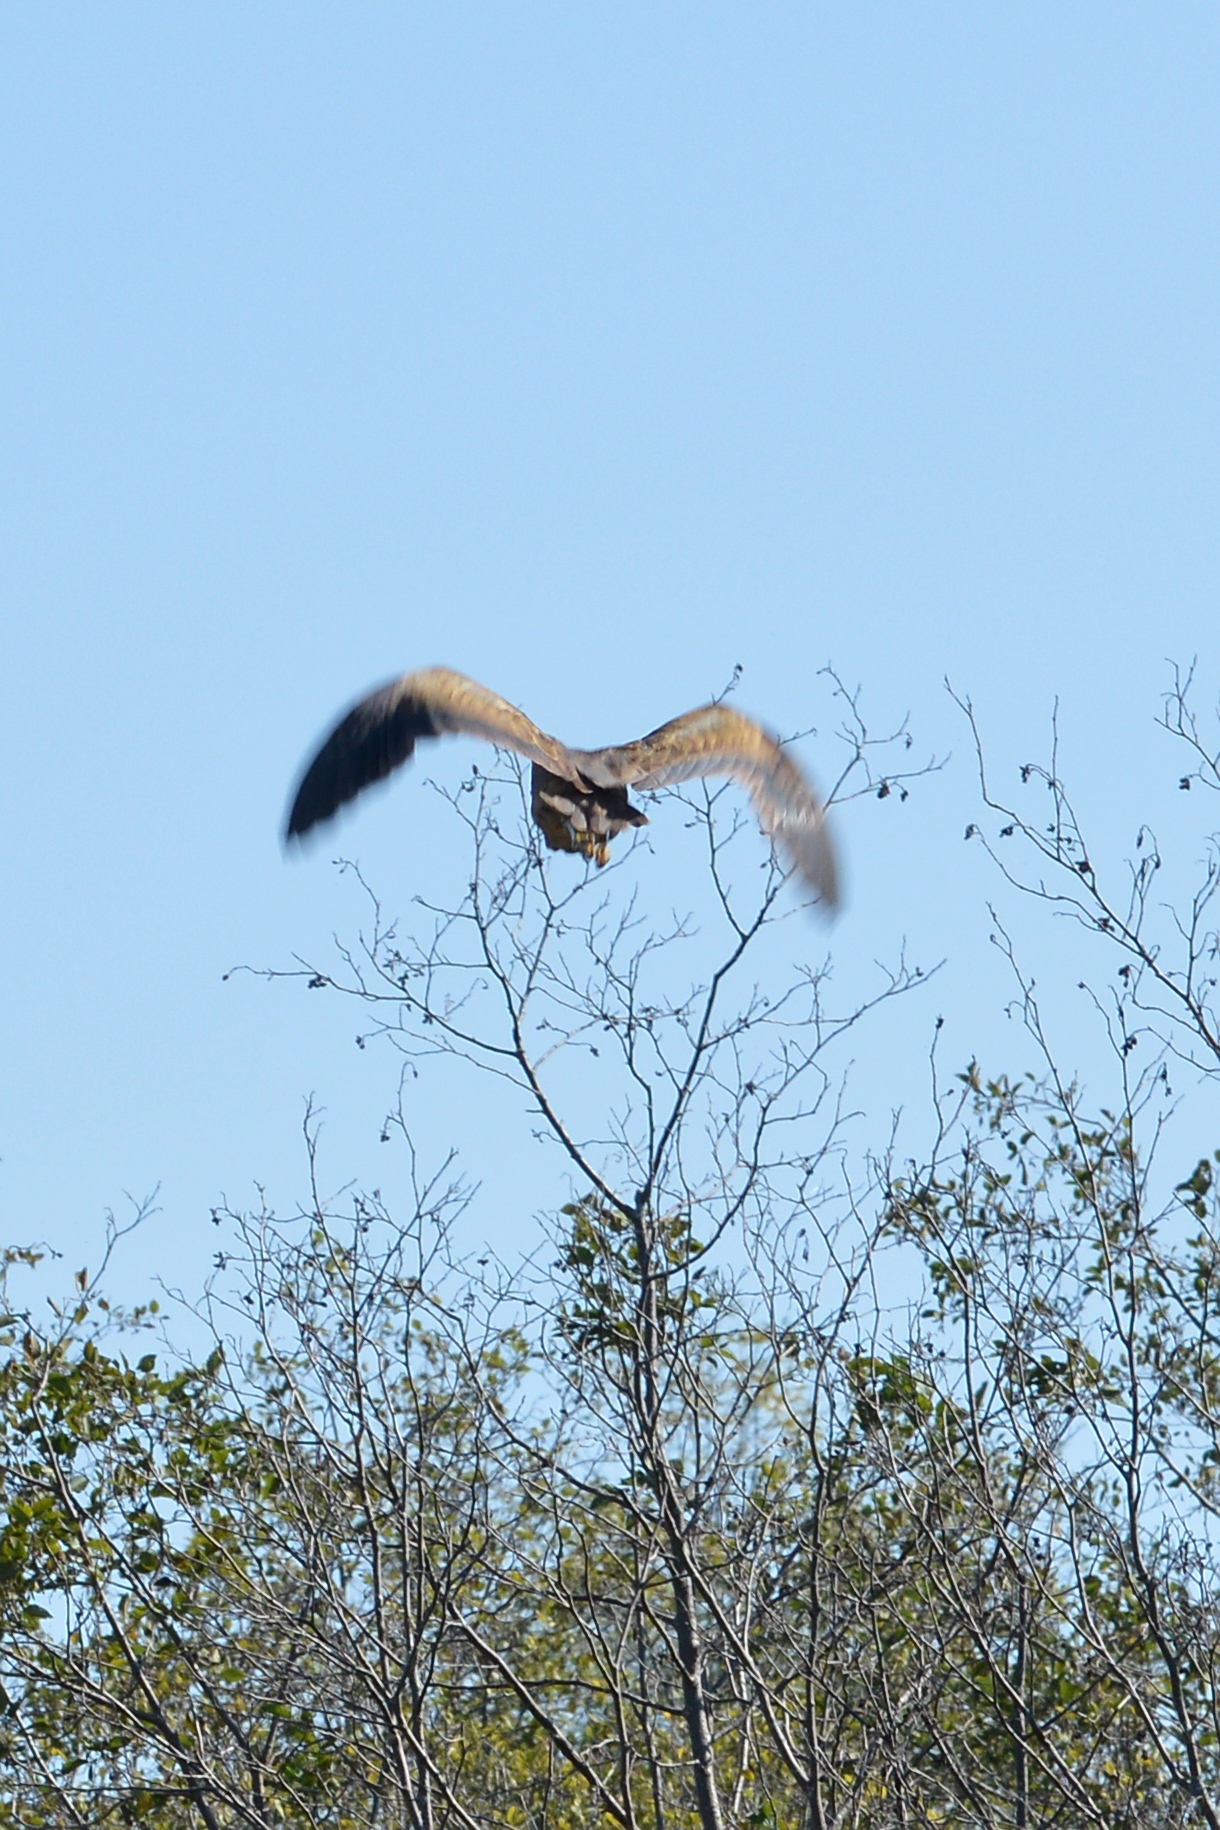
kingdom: Animalia
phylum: Chordata
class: Aves
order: Pelecaniformes
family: Ardeidae
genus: Botaurus
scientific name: Botaurus lentiginosus
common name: American bittern
